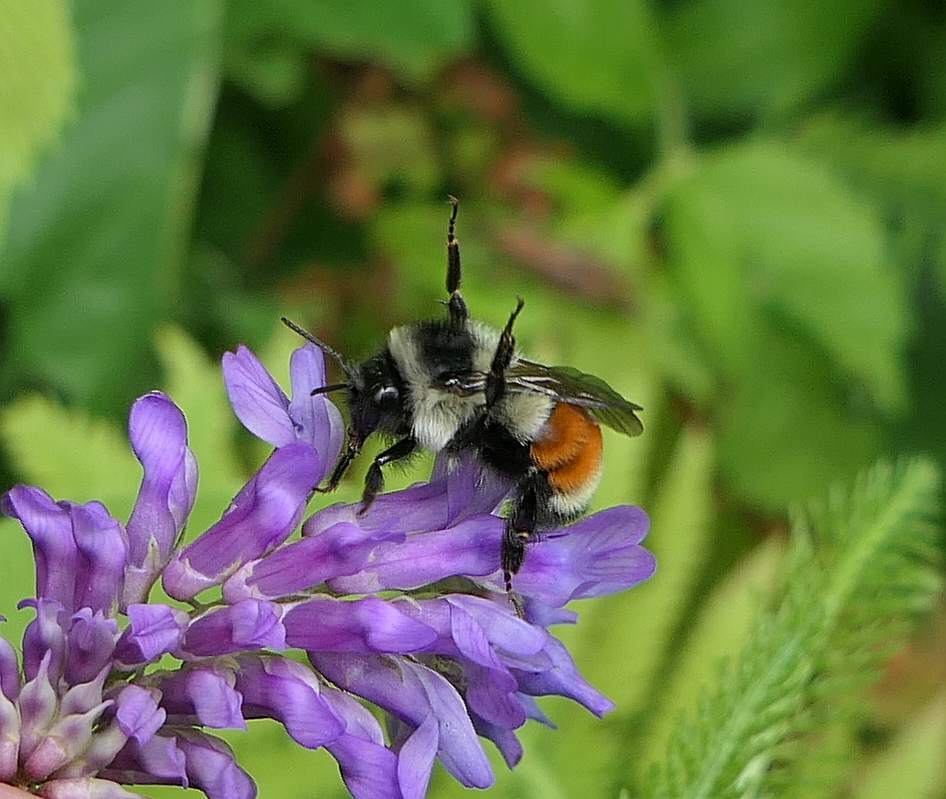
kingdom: Animalia
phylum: Arthropoda
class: Insecta
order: Hymenoptera
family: Apidae
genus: Bombus
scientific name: Bombus ternarius
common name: Tri-colored bumble bee
